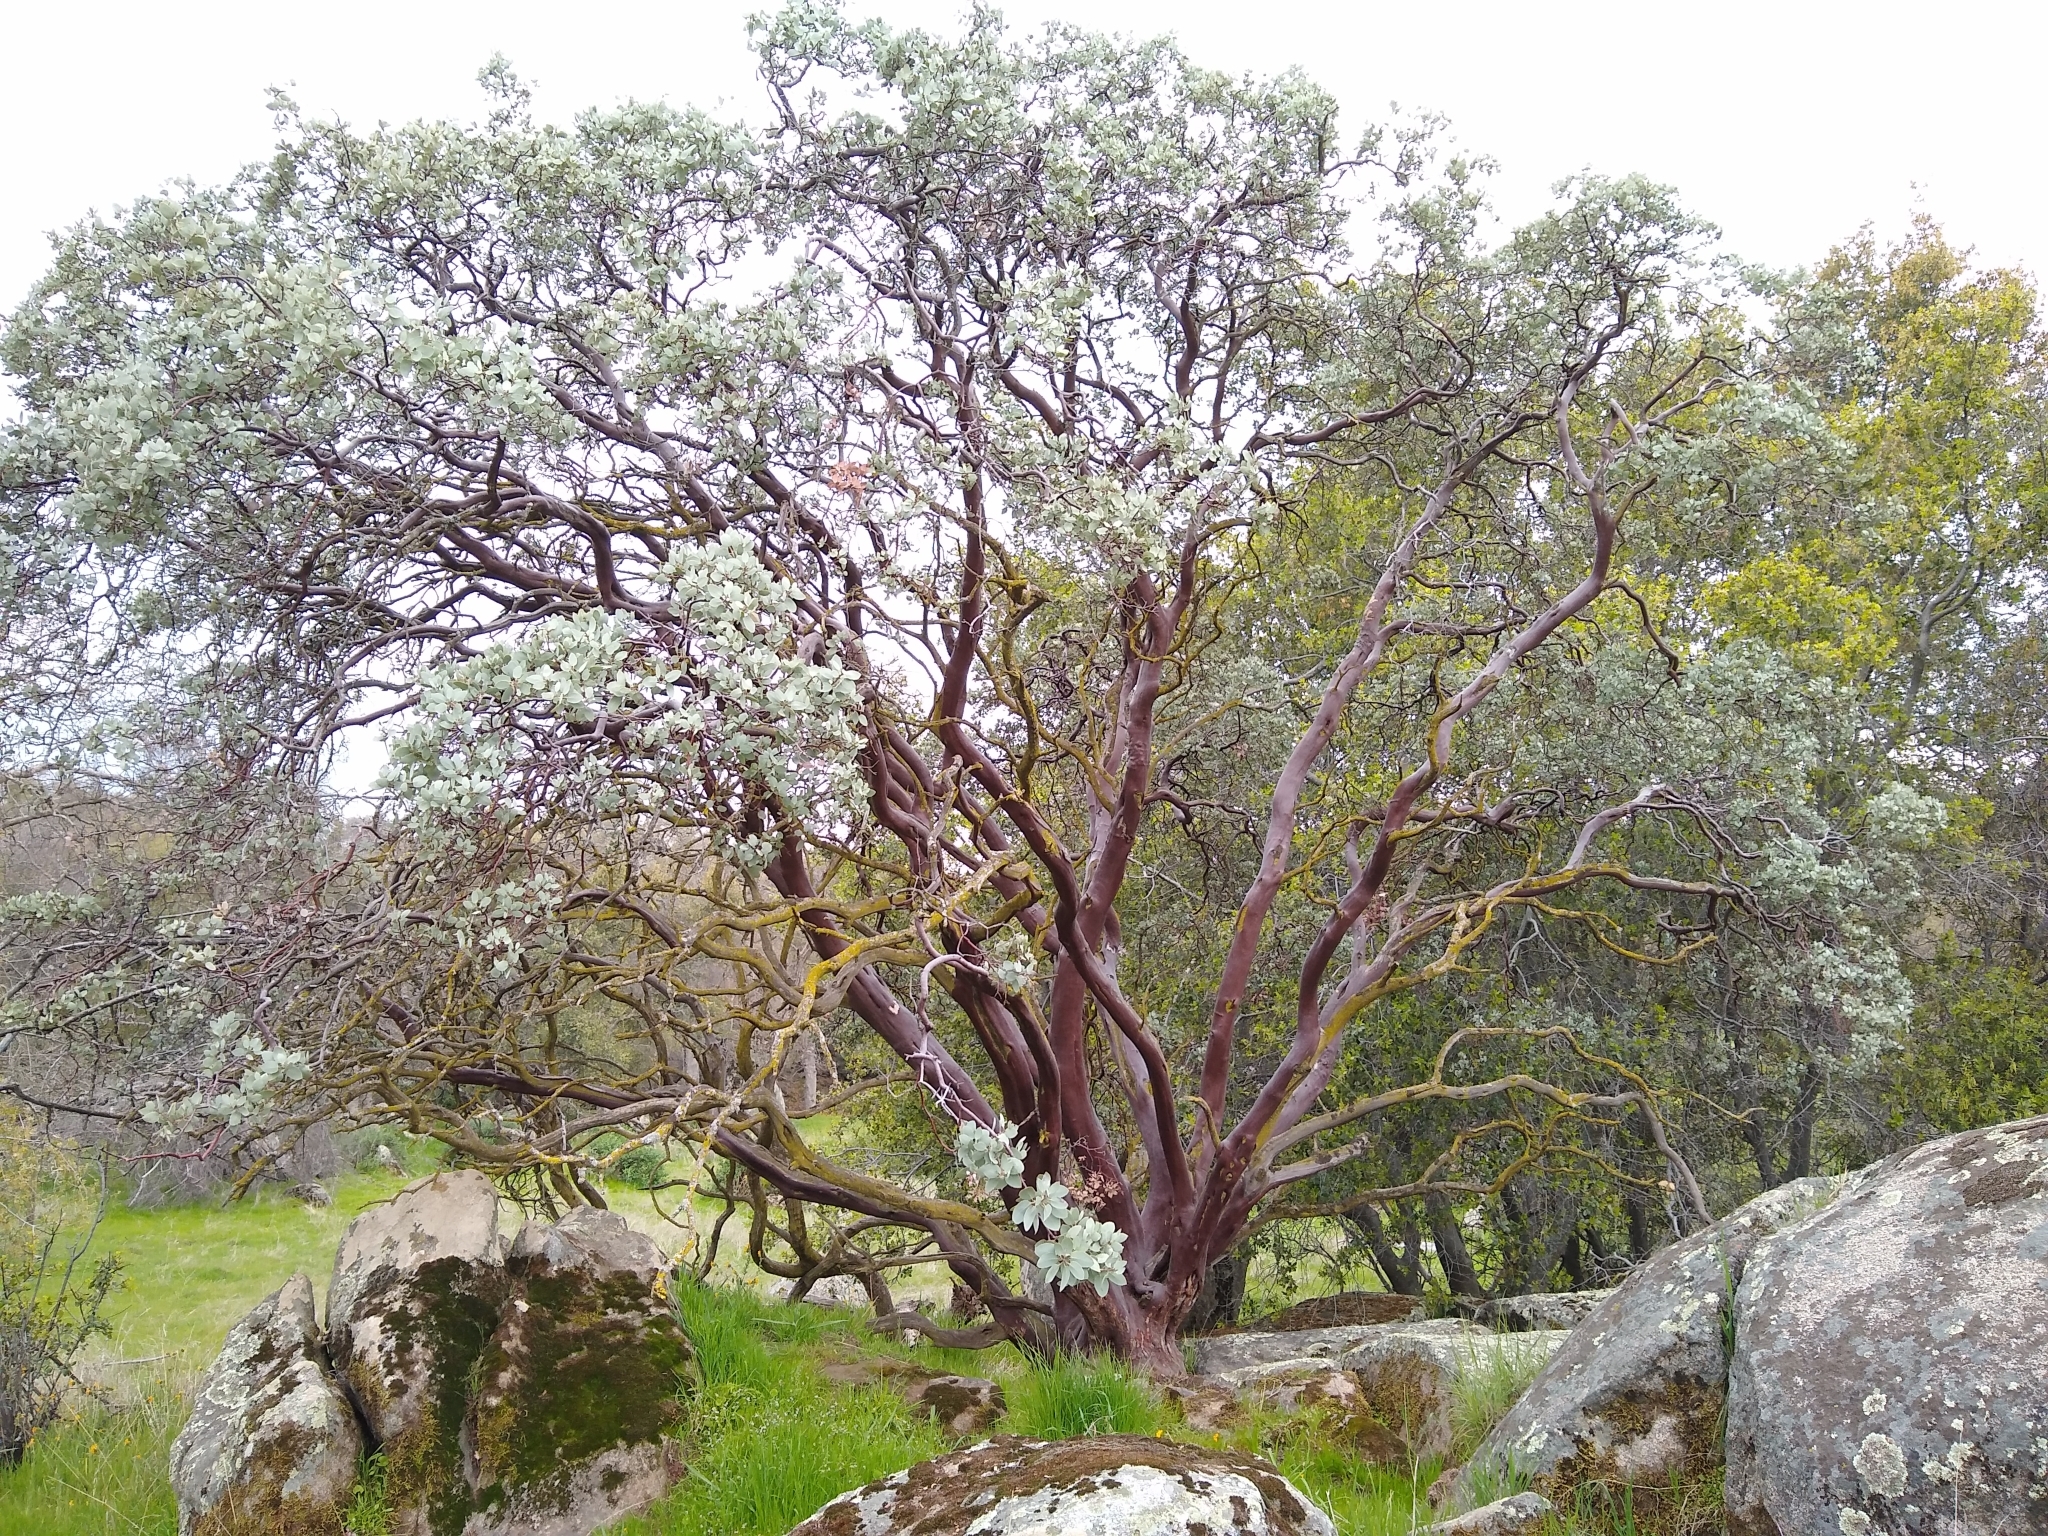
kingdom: Plantae
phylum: Tracheophyta
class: Magnoliopsida
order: Ericales
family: Ericaceae
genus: Arctostaphylos
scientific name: Arctostaphylos viscida
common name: White-leaf manzanita
